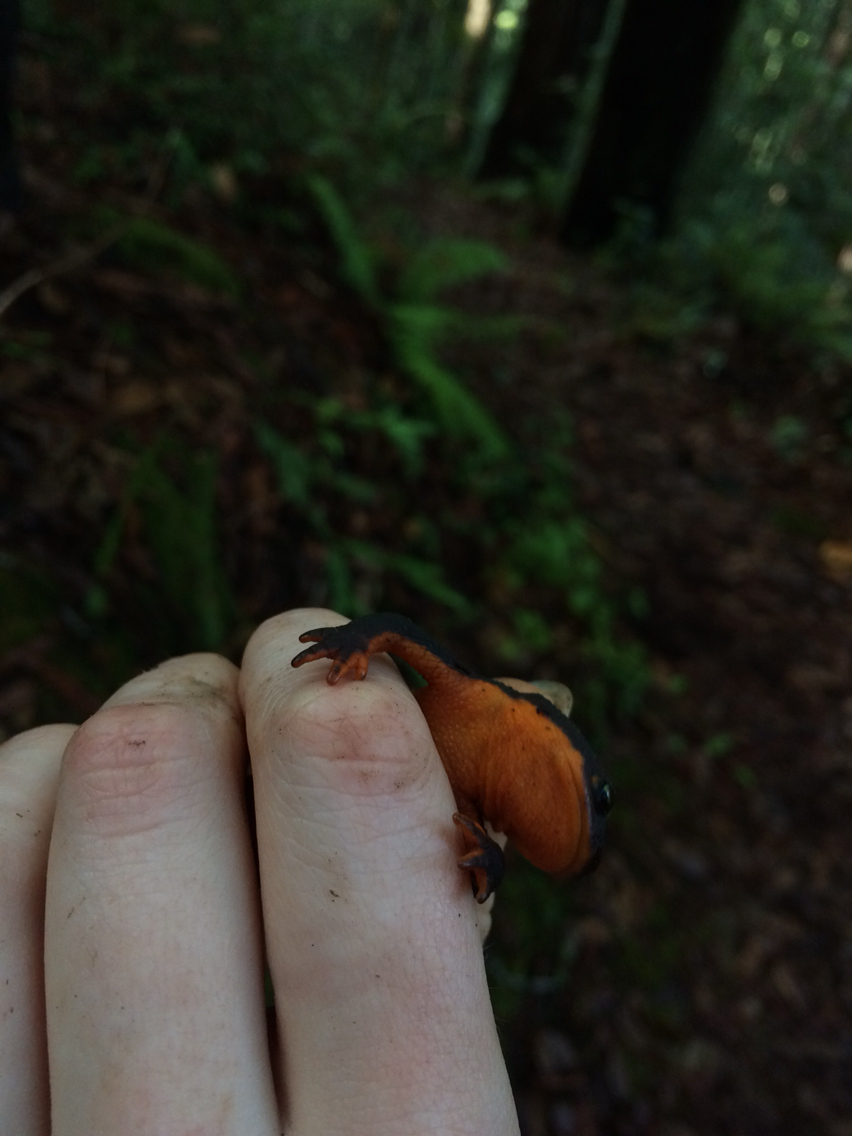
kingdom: Animalia
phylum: Chordata
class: Amphibia
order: Caudata
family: Salamandridae
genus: Taricha
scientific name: Taricha granulosa
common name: Roughskin newt
